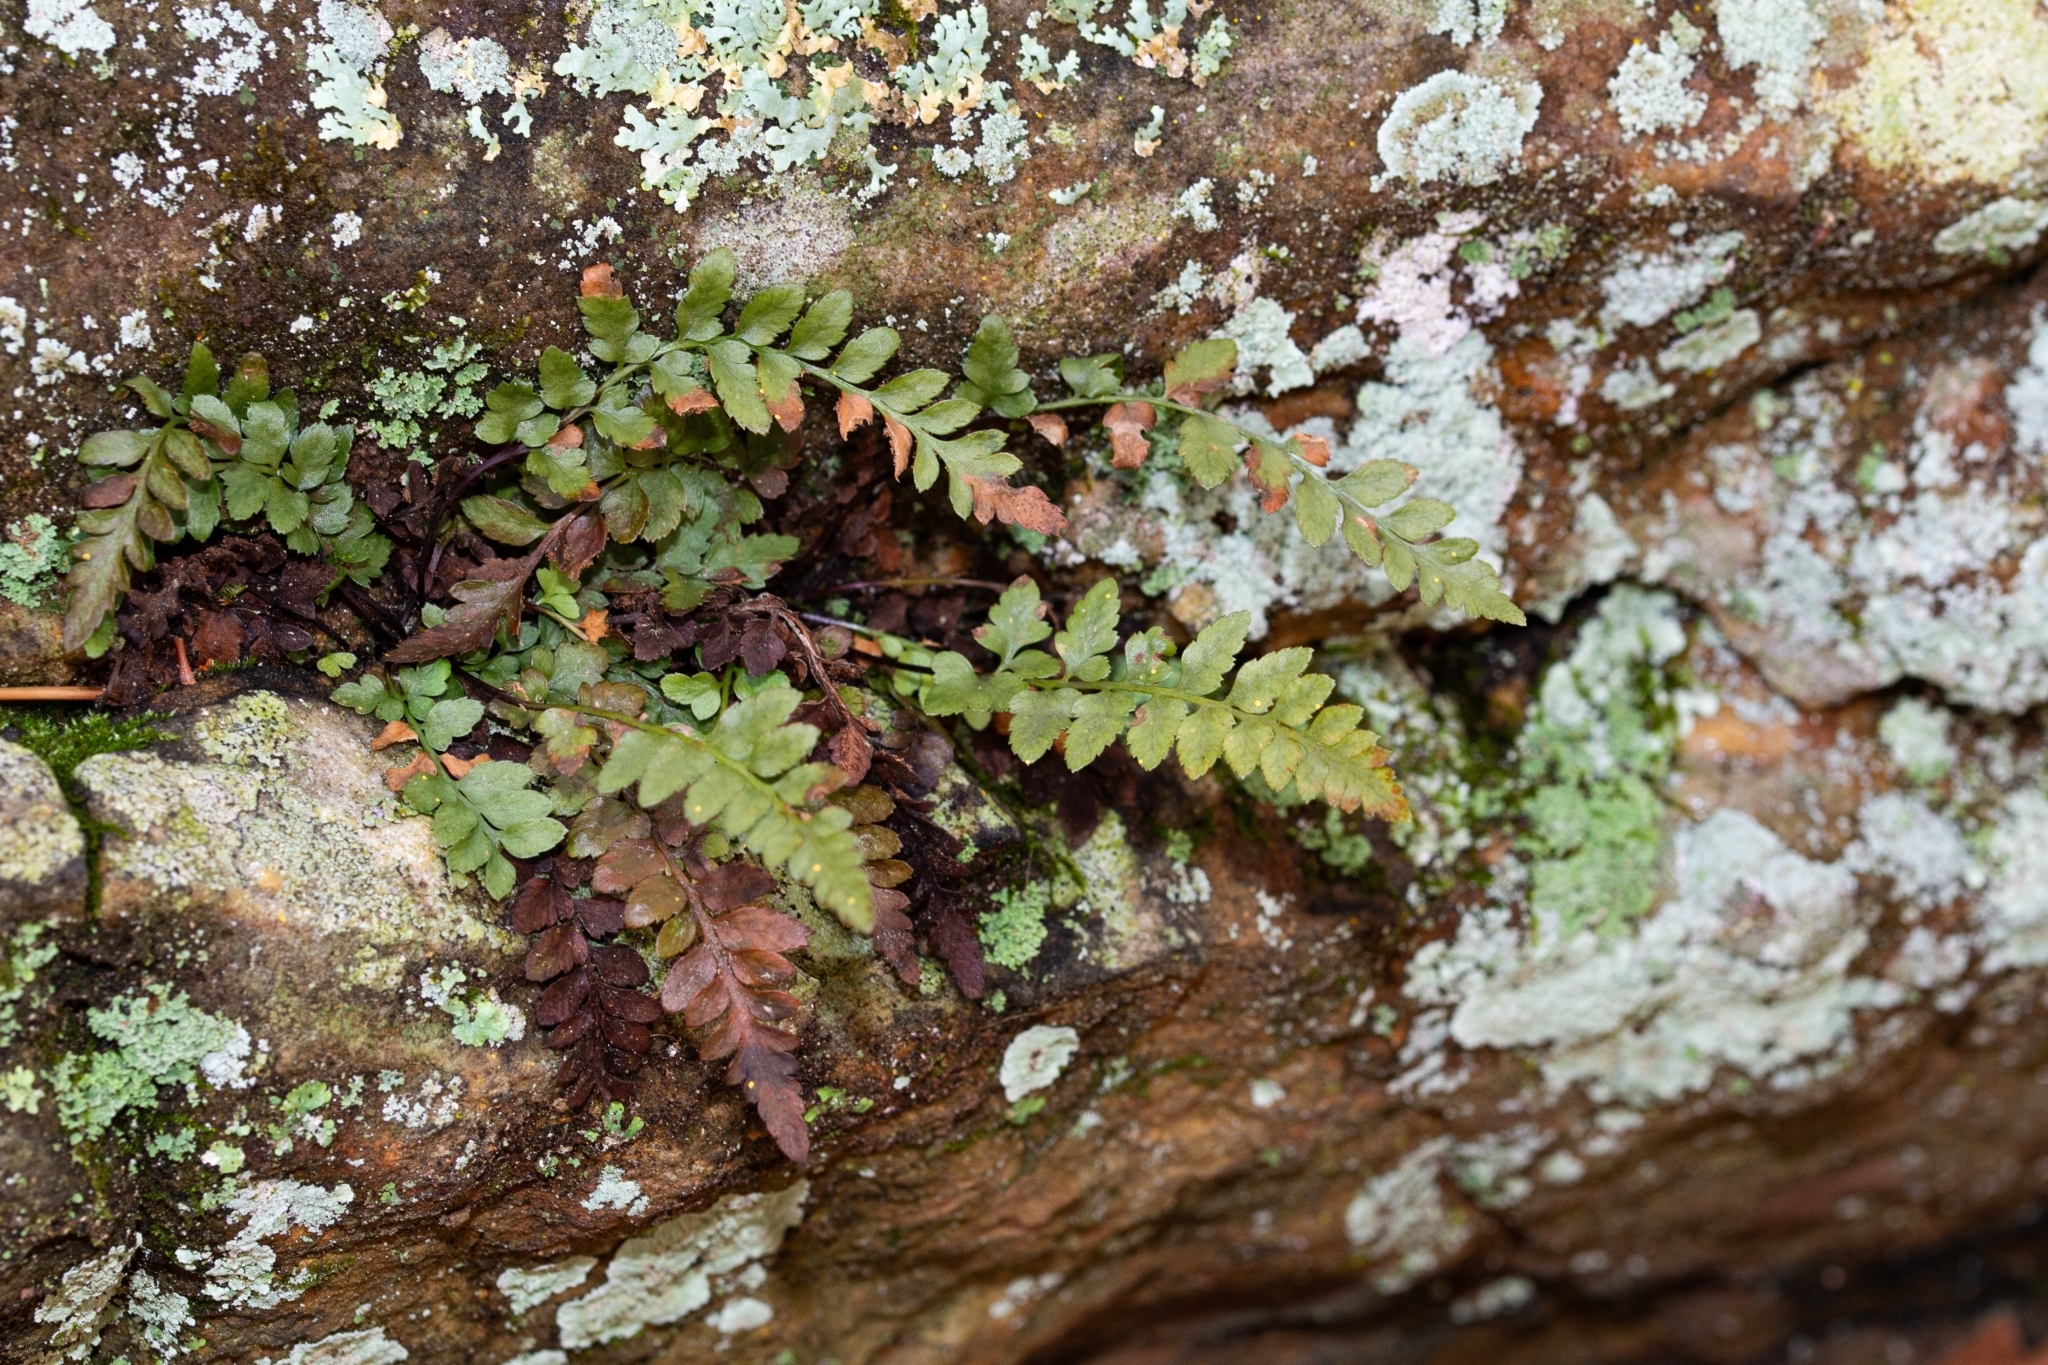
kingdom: Plantae
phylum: Tracheophyta
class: Polypodiopsida
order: Polypodiales
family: Aspleniaceae
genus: Asplenium
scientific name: Asplenium bradleyi
